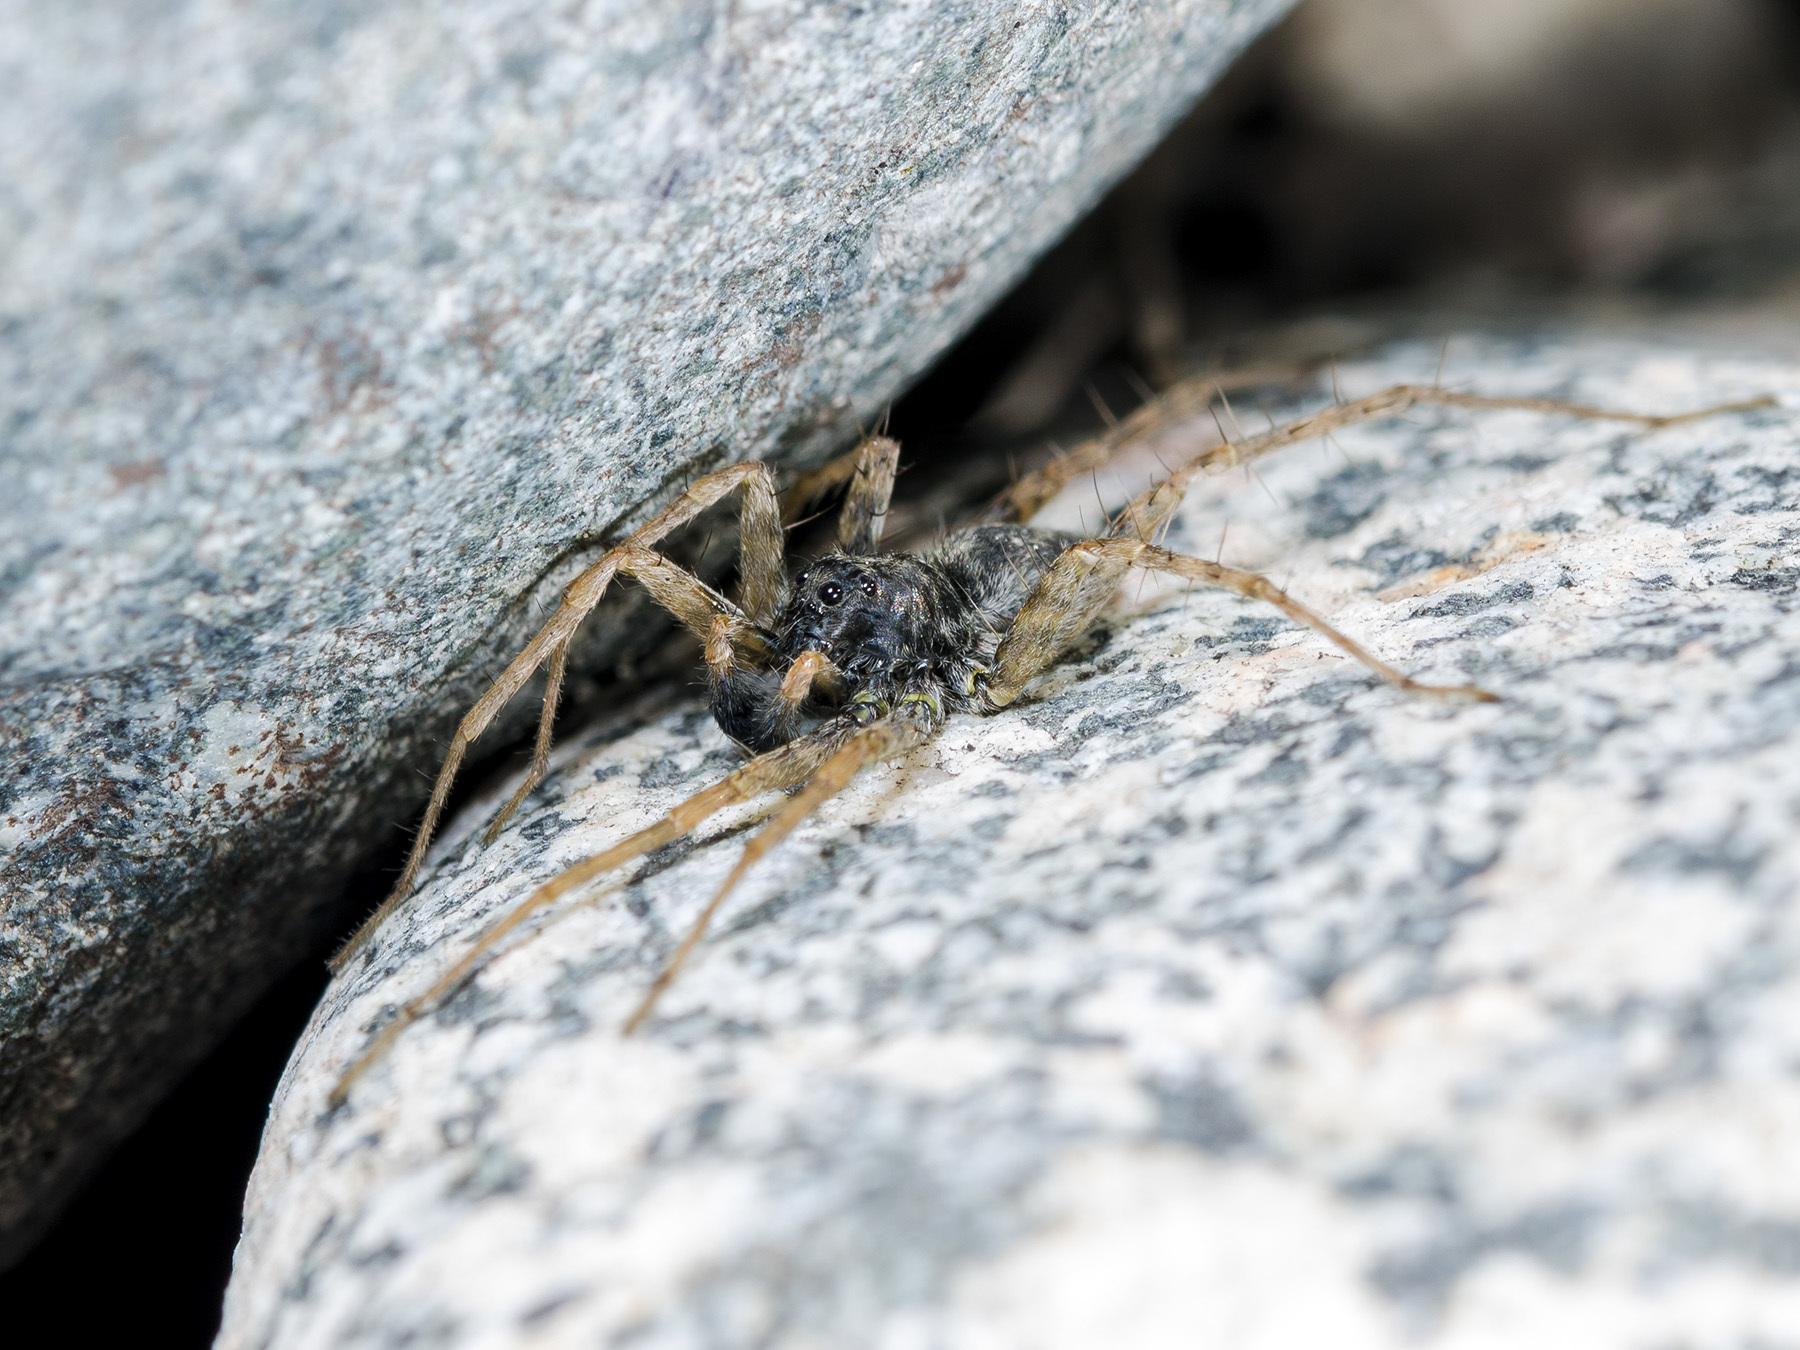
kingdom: Animalia
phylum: Arthropoda
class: Arachnida
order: Araneae
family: Lycosidae
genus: Pardosa
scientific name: Pardosa falcata
